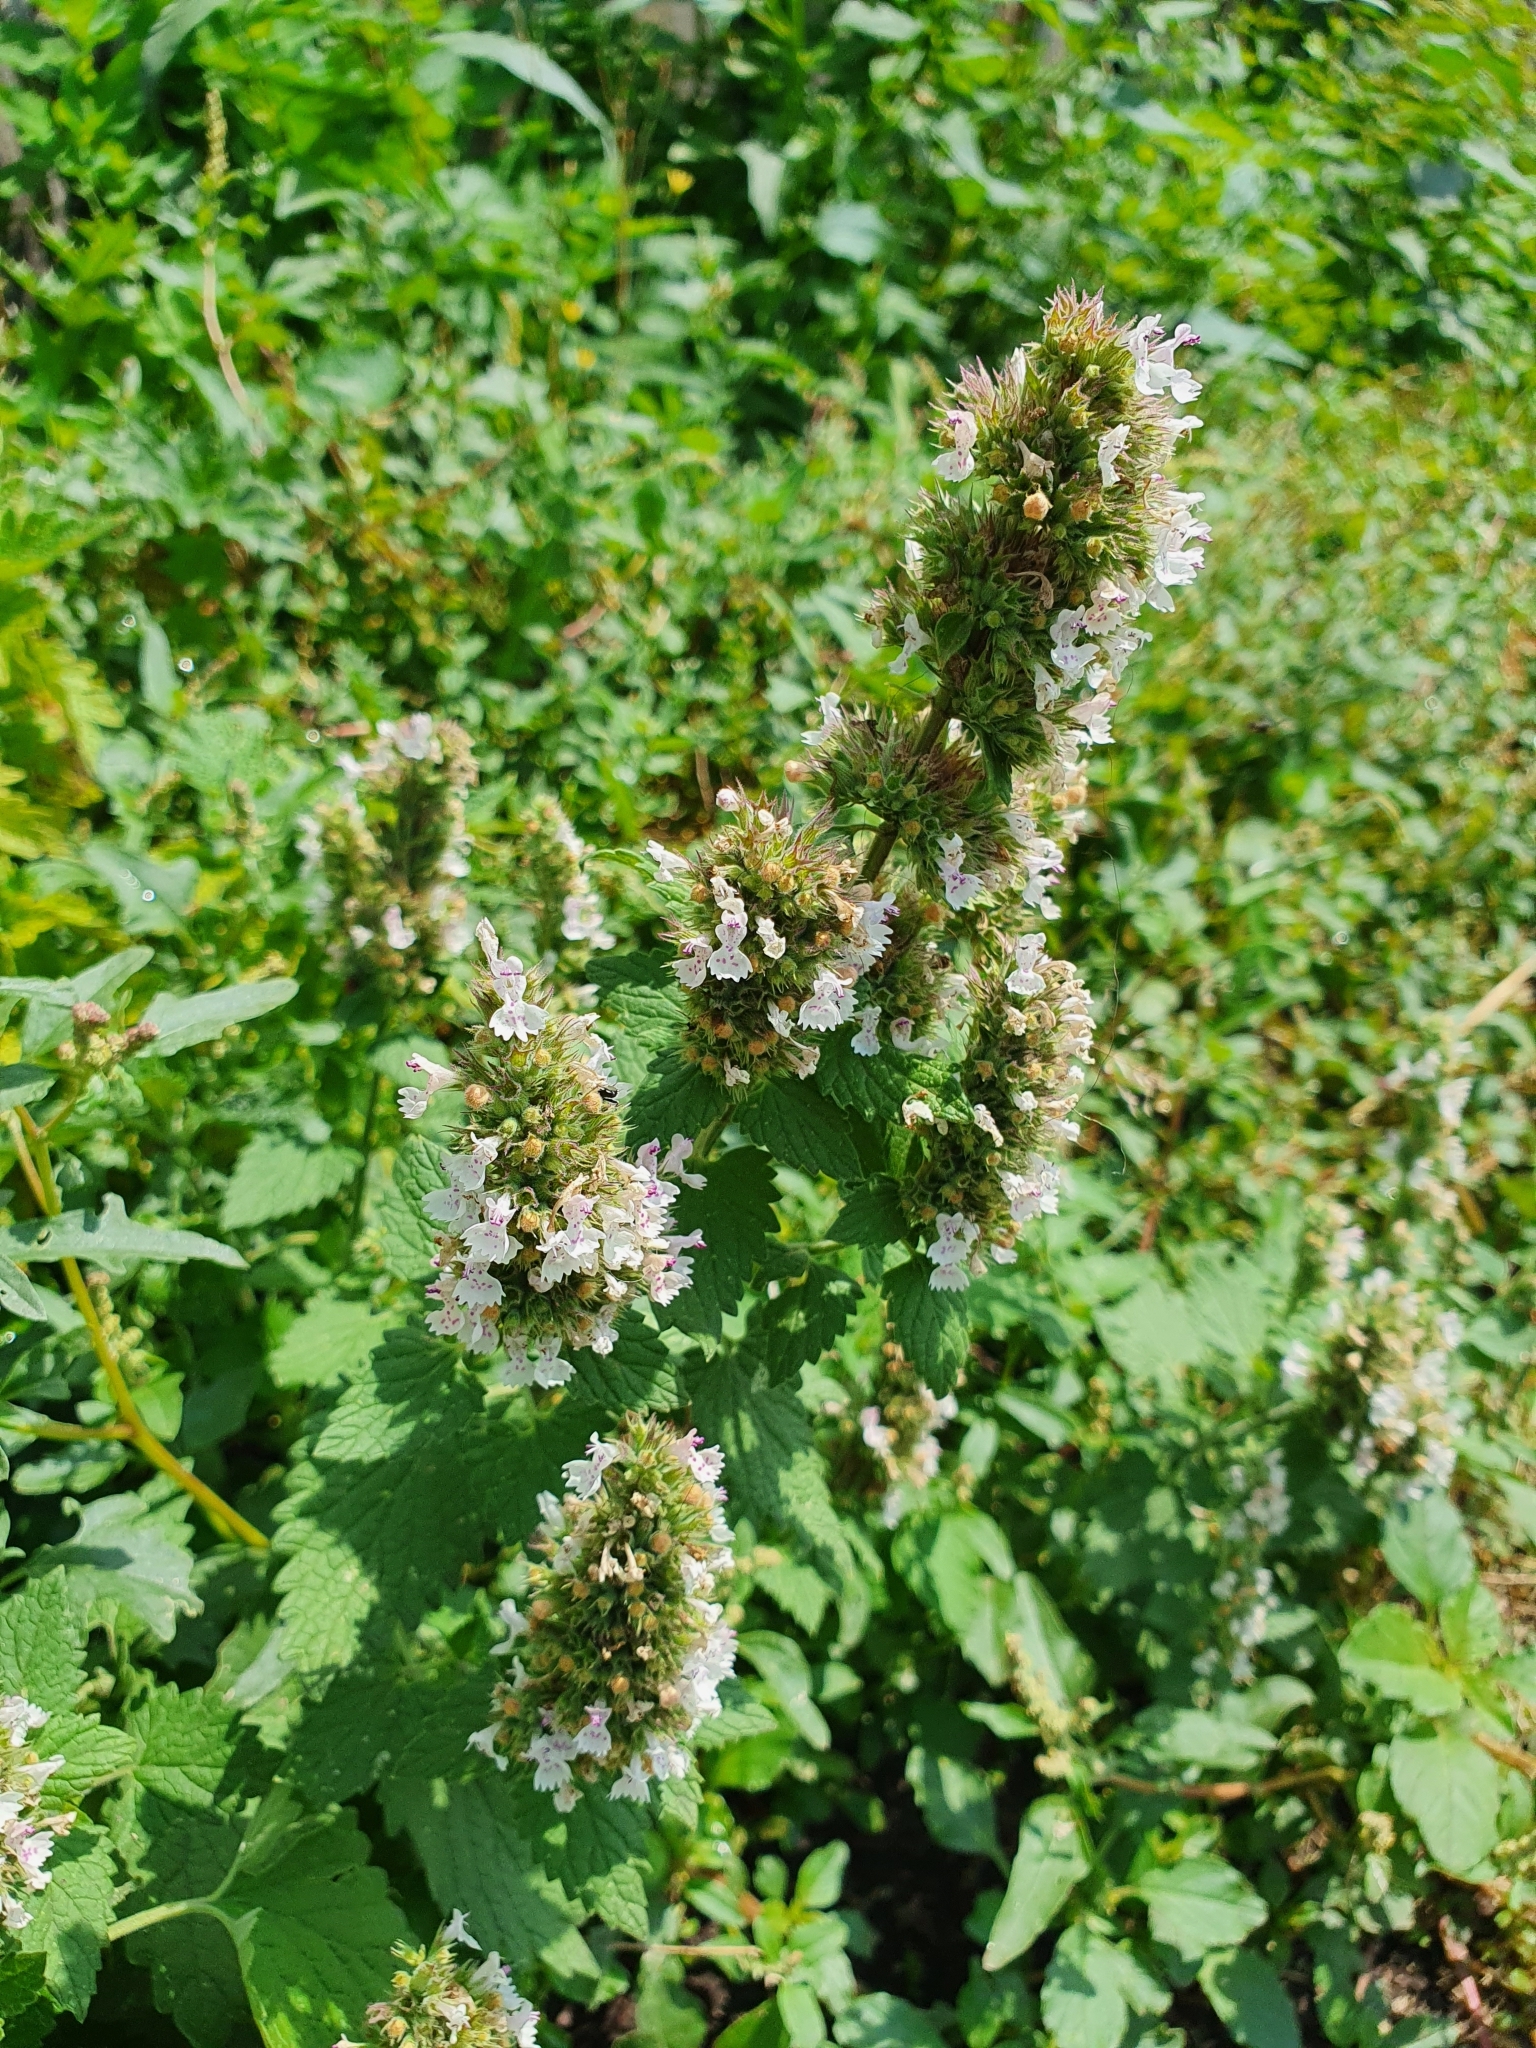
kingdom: Plantae
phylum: Tracheophyta
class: Magnoliopsida
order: Lamiales
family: Lamiaceae
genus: Nepeta
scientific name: Nepeta cataria
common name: Catnip
